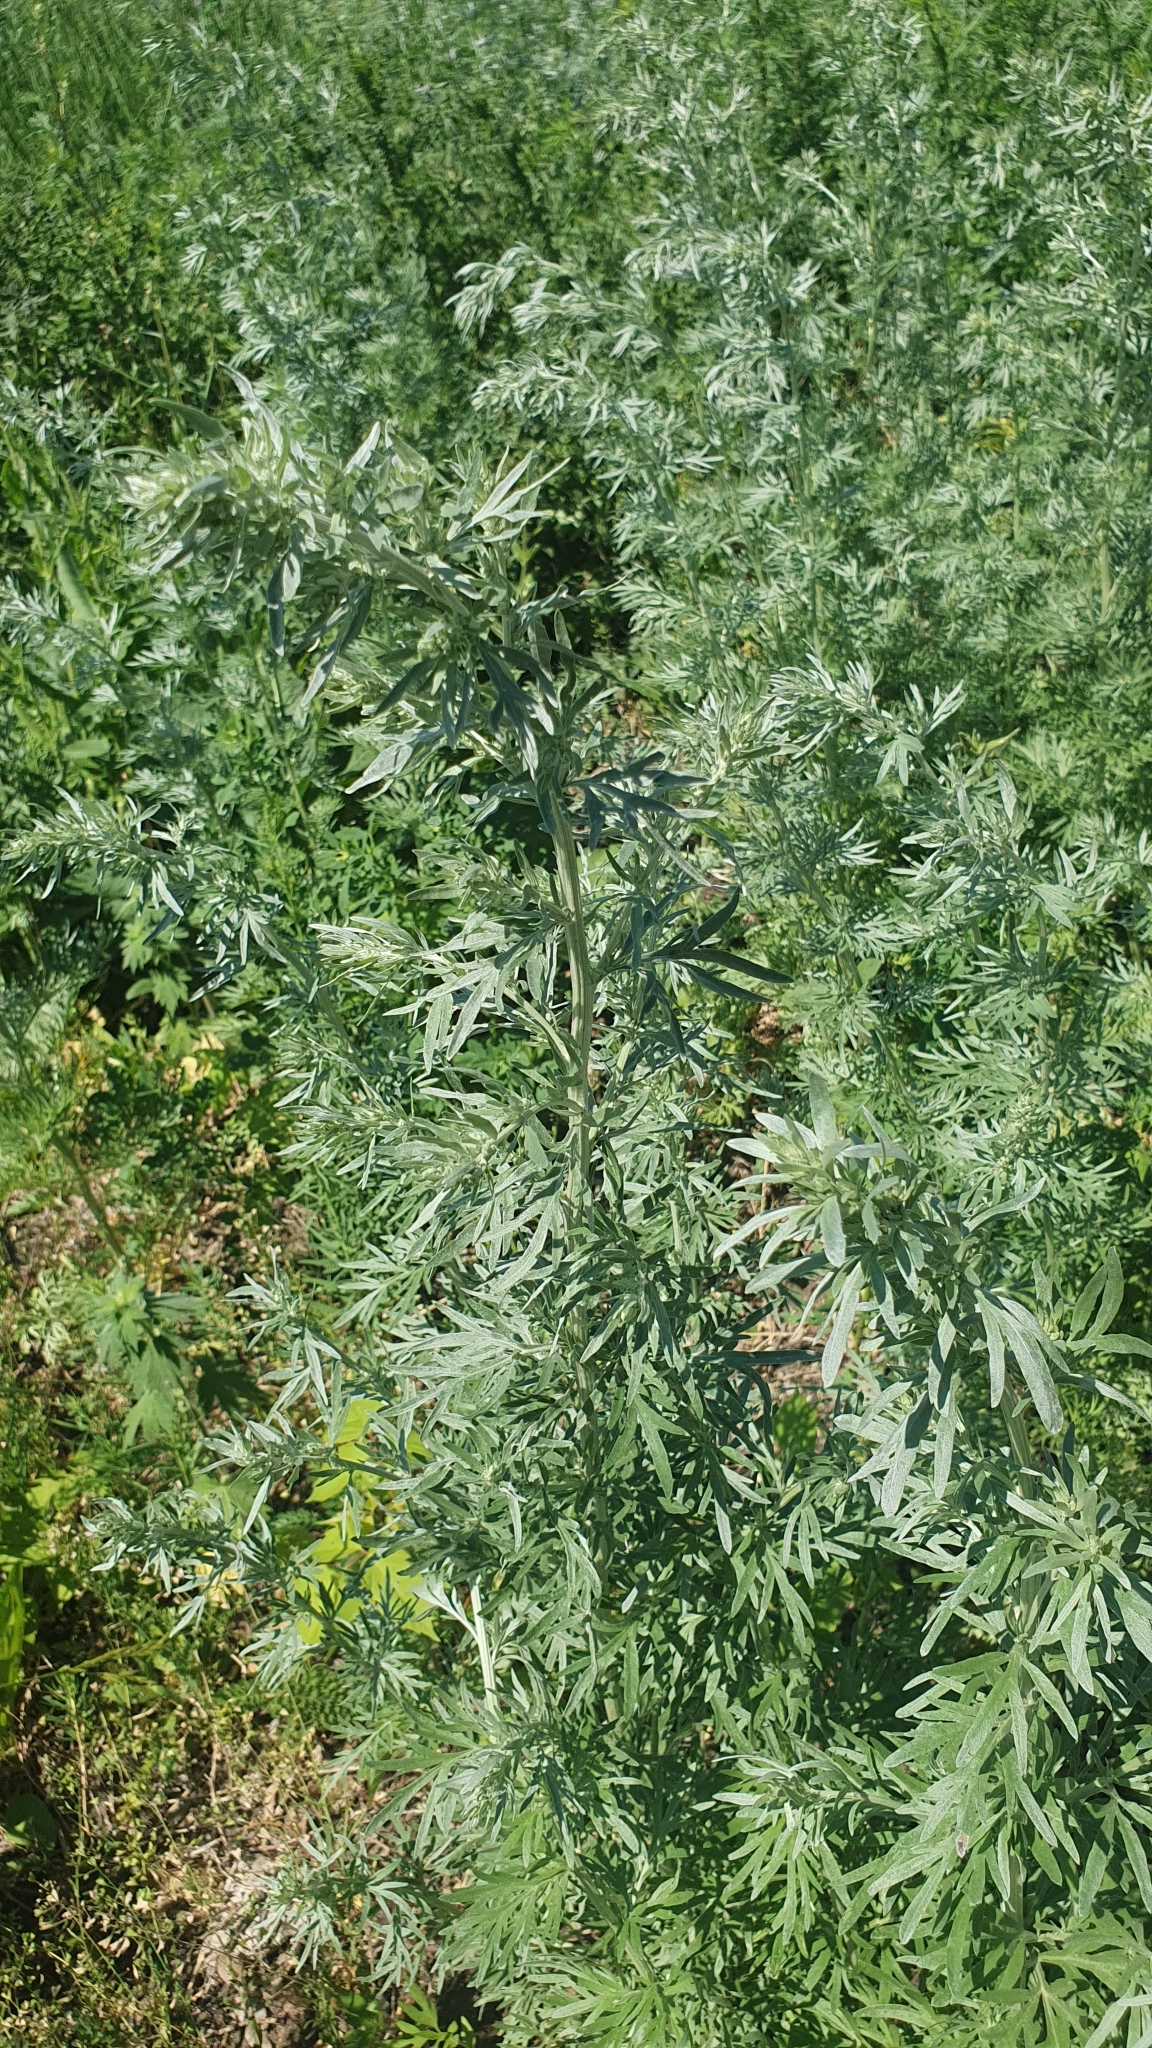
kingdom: Plantae
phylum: Tracheophyta
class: Magnoliopsida
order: Asterales
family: Asteraceae
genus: Artemisia
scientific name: Artemisia absinthium
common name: Wormwood
